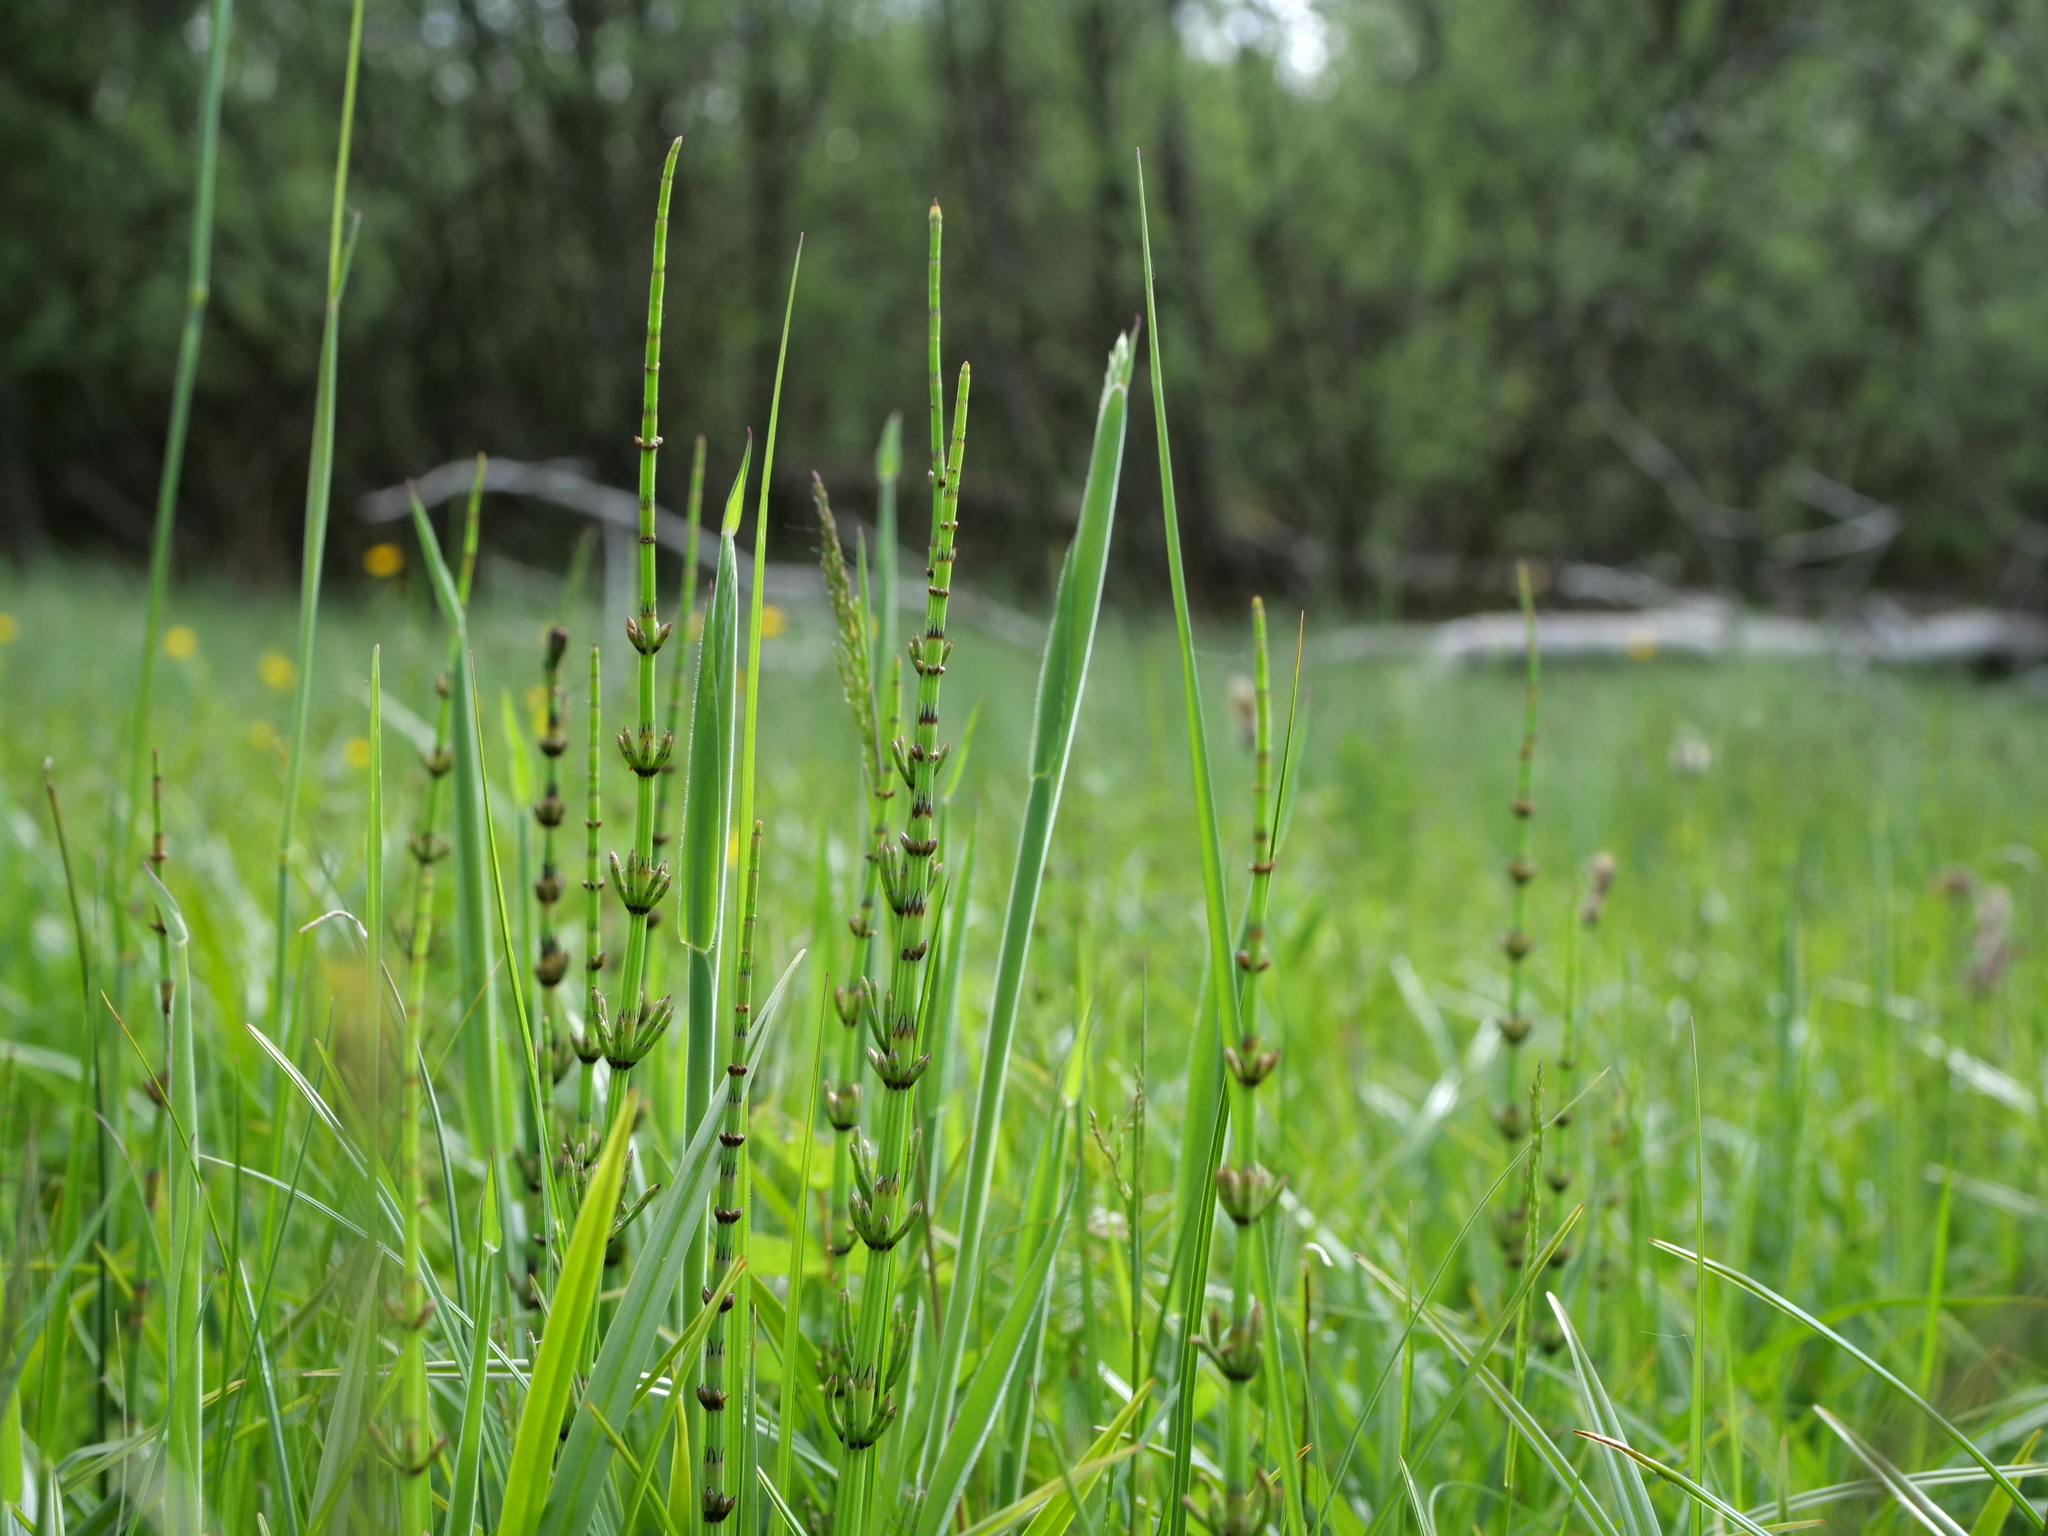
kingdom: Plantae
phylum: Tracheophyta
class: Polypodiopsida
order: Equisetales
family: Equisetaceae
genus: Equisetum
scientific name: Equisetum palustre
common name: Marsh horsetail
